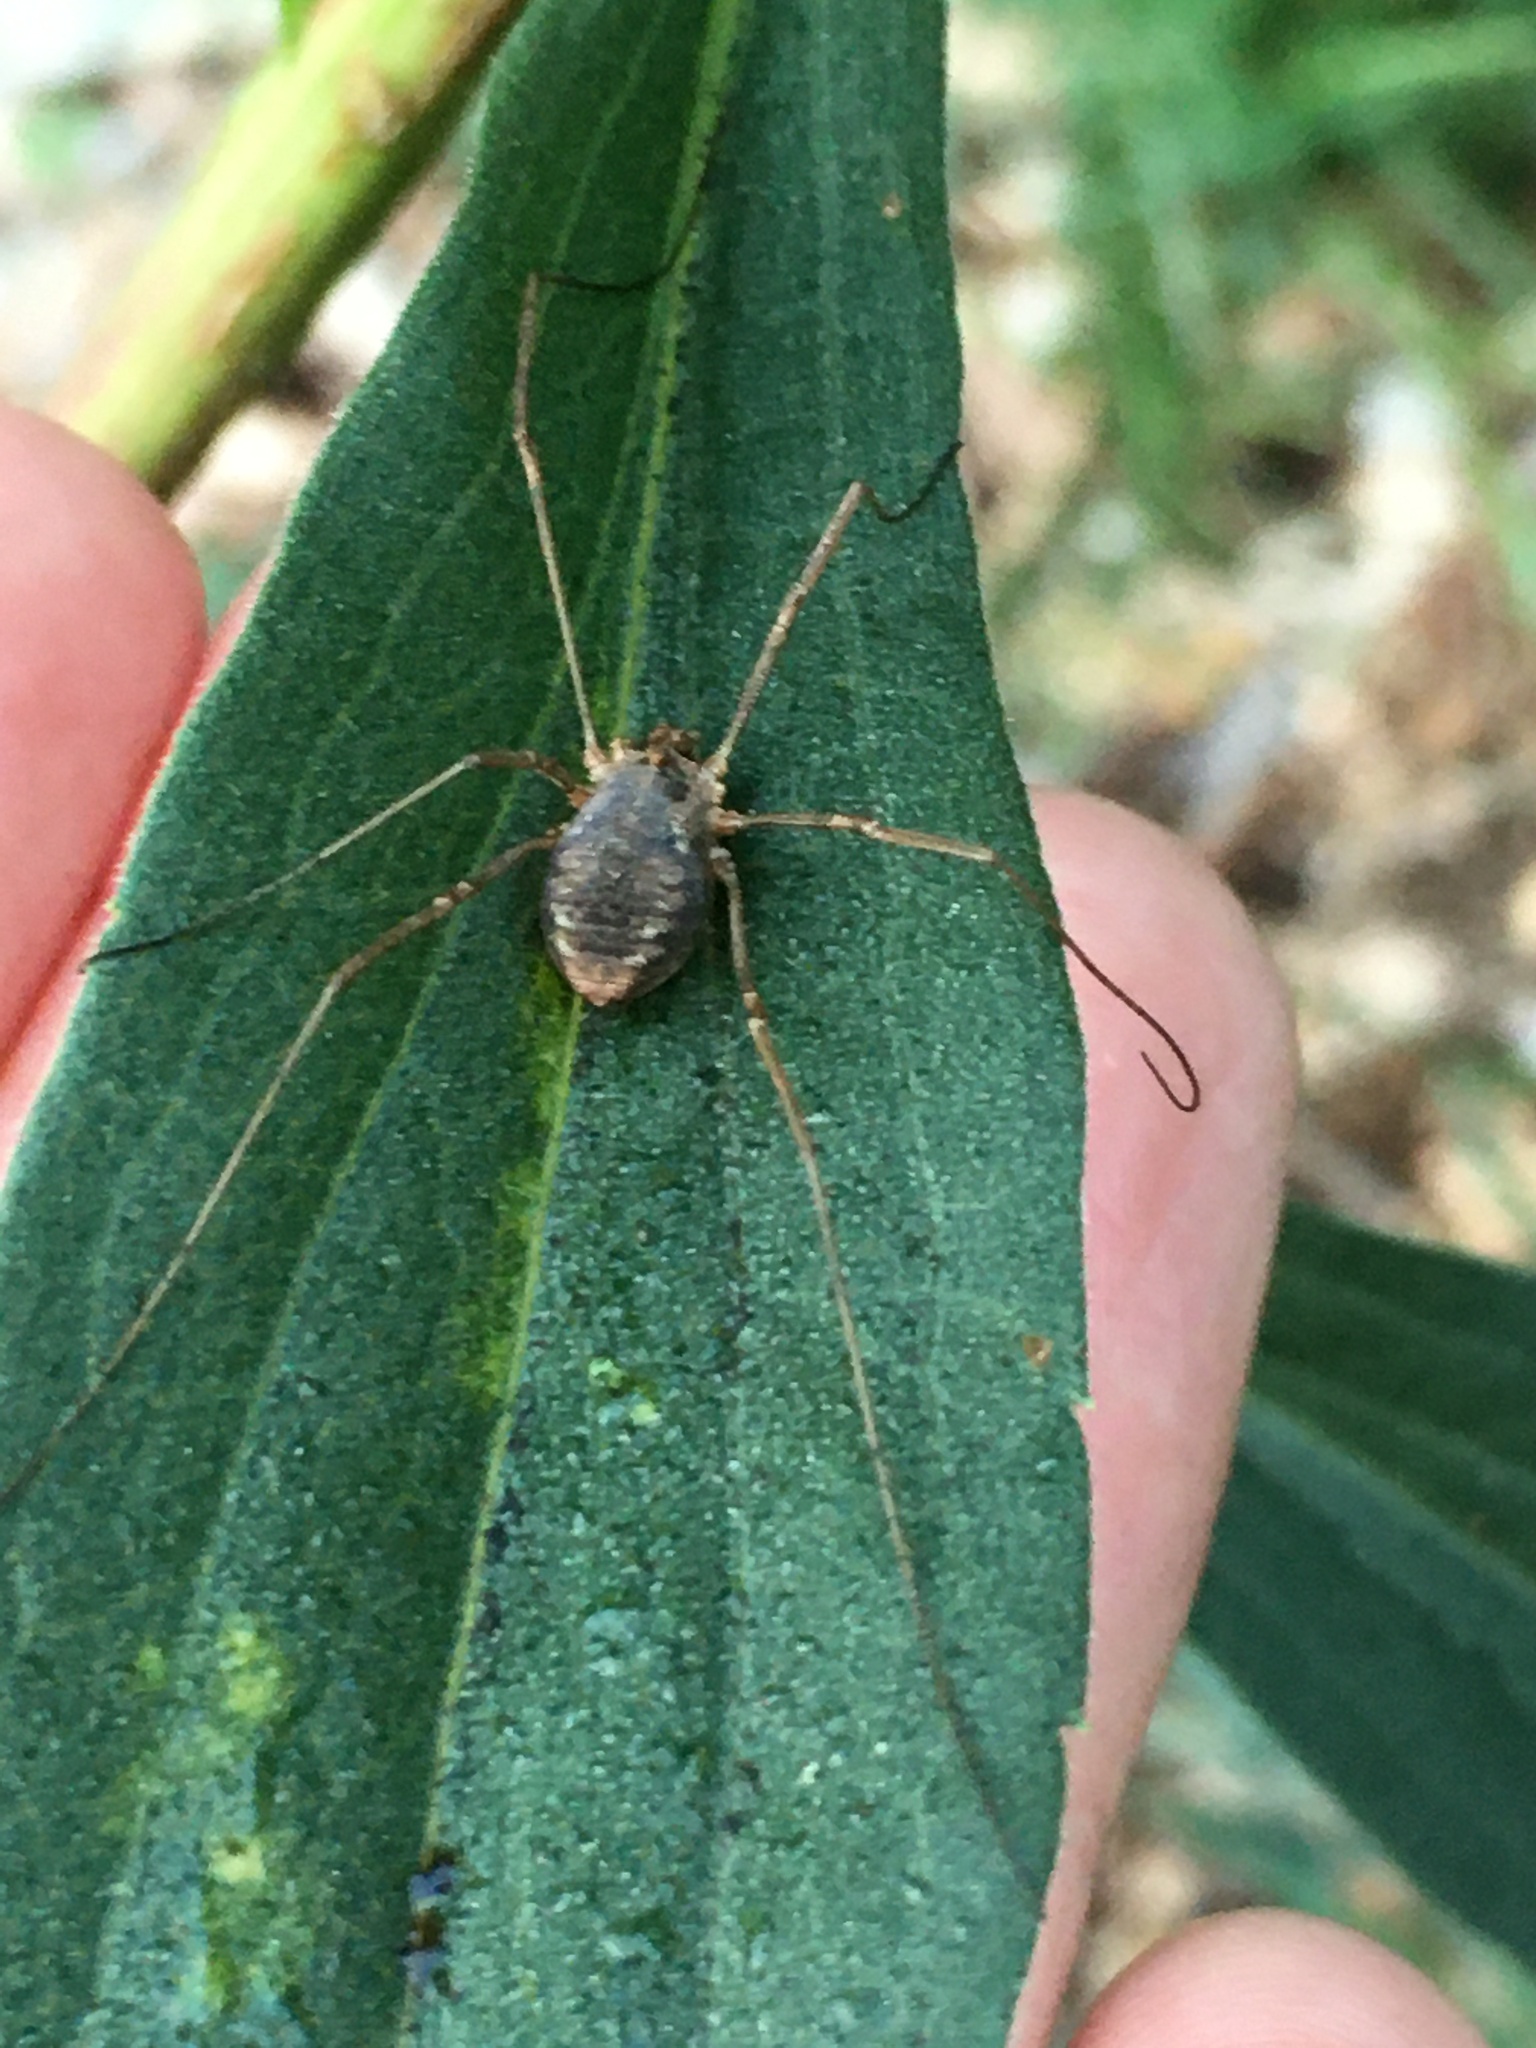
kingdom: Animalia
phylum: Arthropoda
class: Arachnida
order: Opiliones
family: Phalangiidae
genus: Phalangium
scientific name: Phalangium opilio
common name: Daddy longleg
